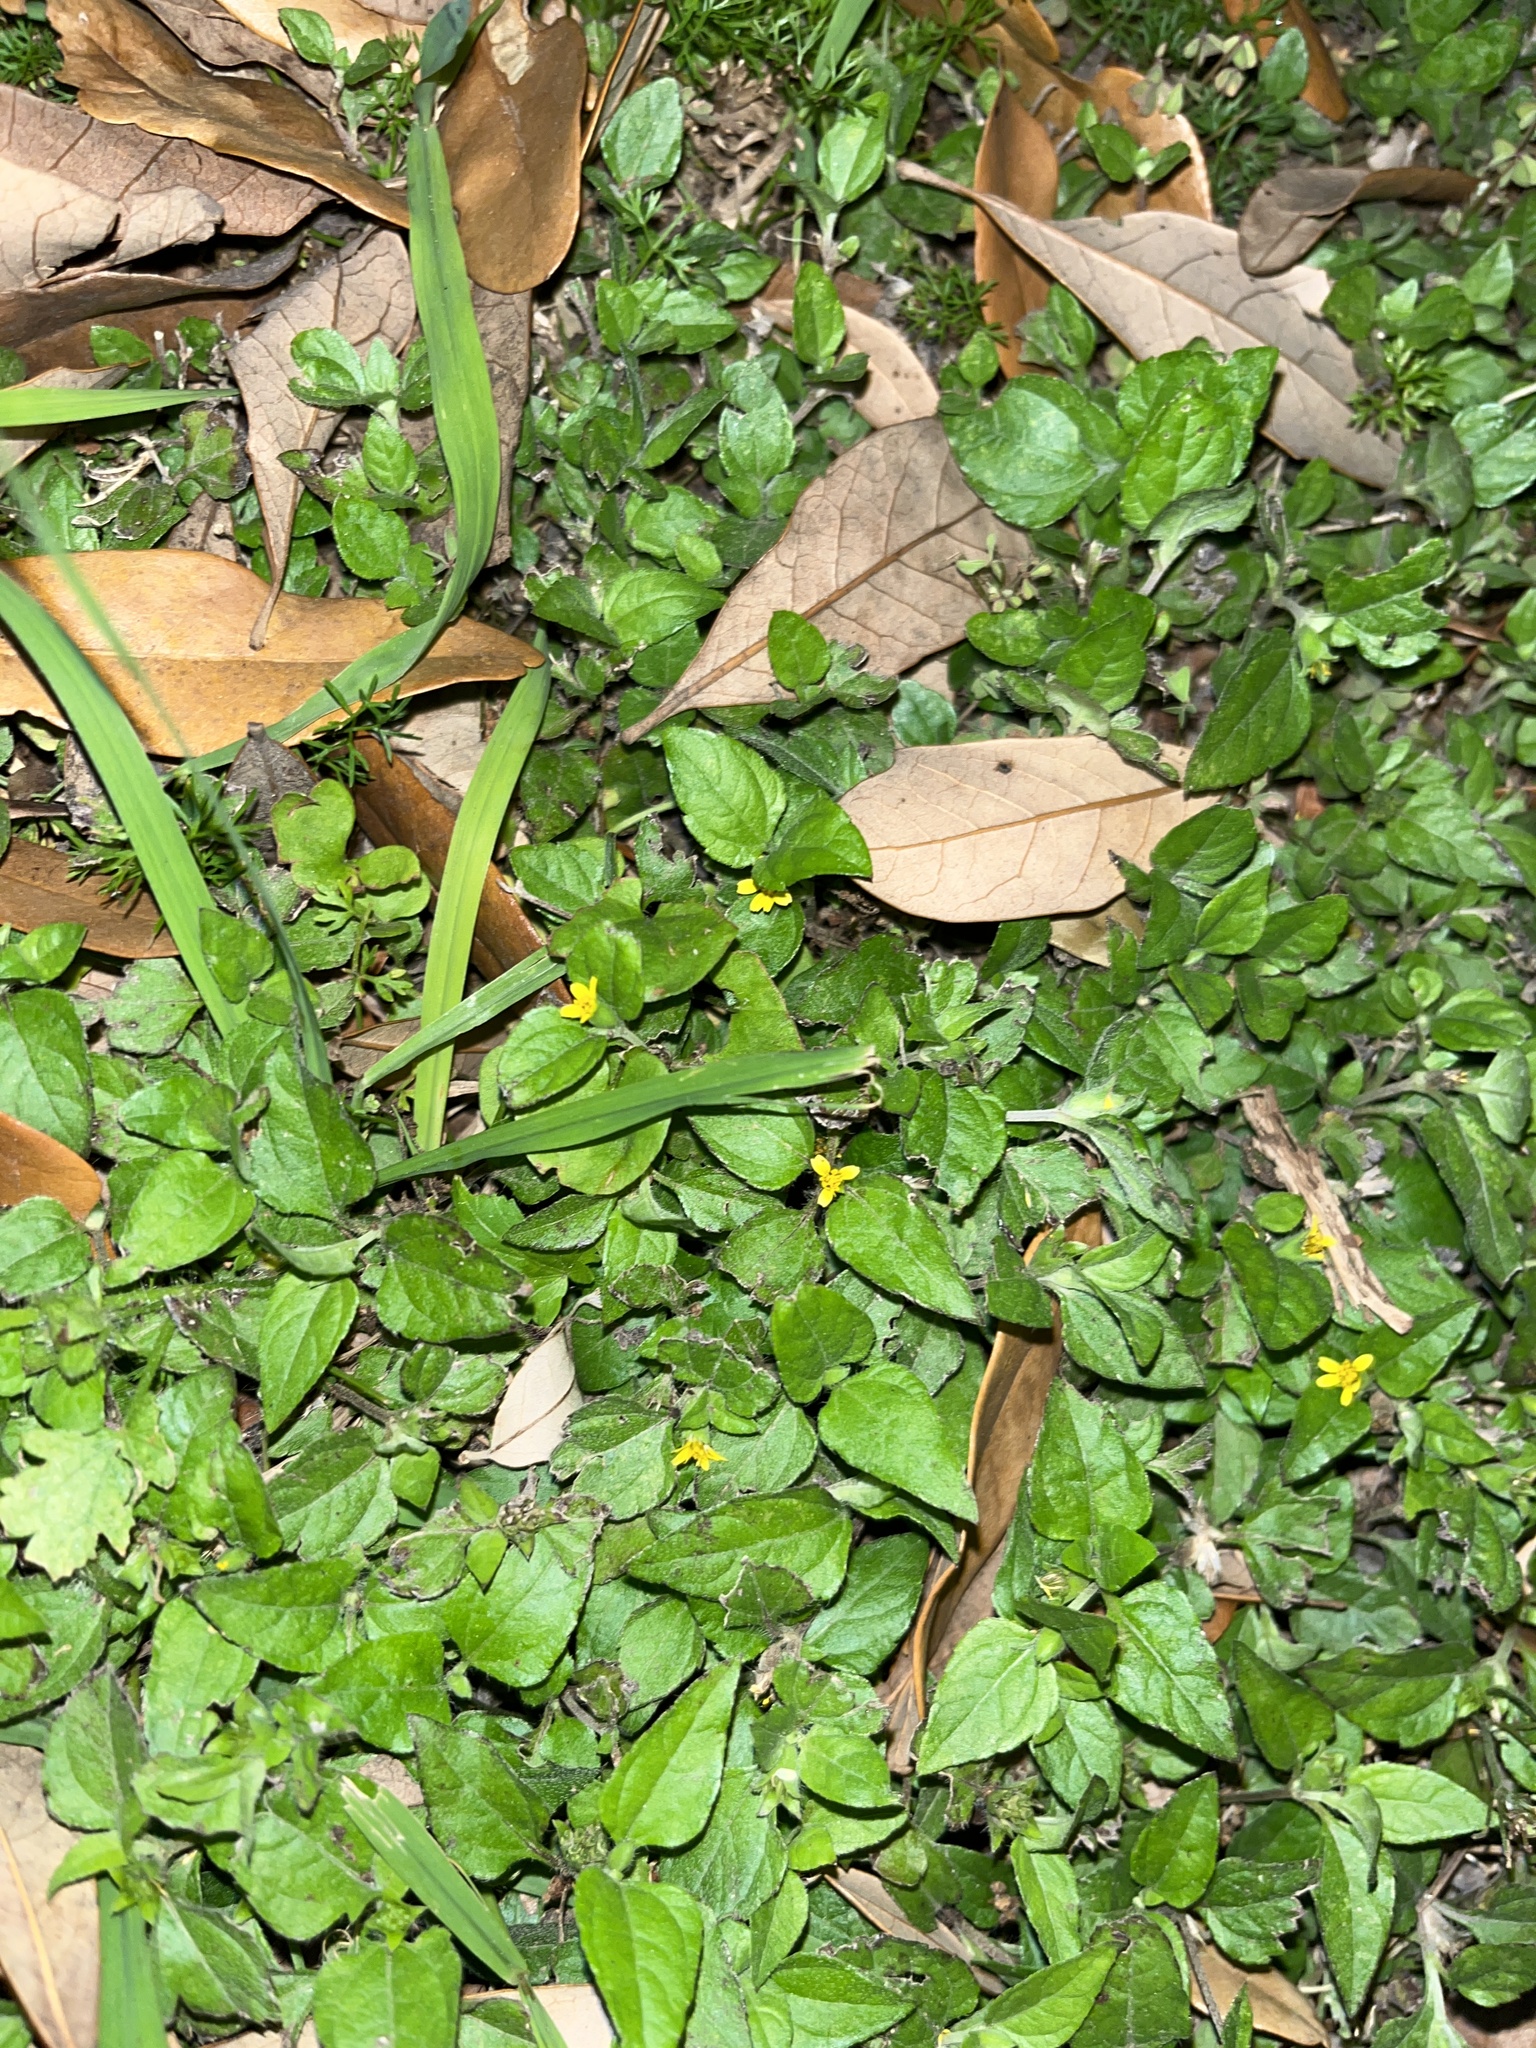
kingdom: Plantae
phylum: Tracheophyta
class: Magnoliopsida
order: Asterales
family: Asteraceae
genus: Calyptocarpus
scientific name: Calyptocarpus vialis
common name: Straggler daisy
